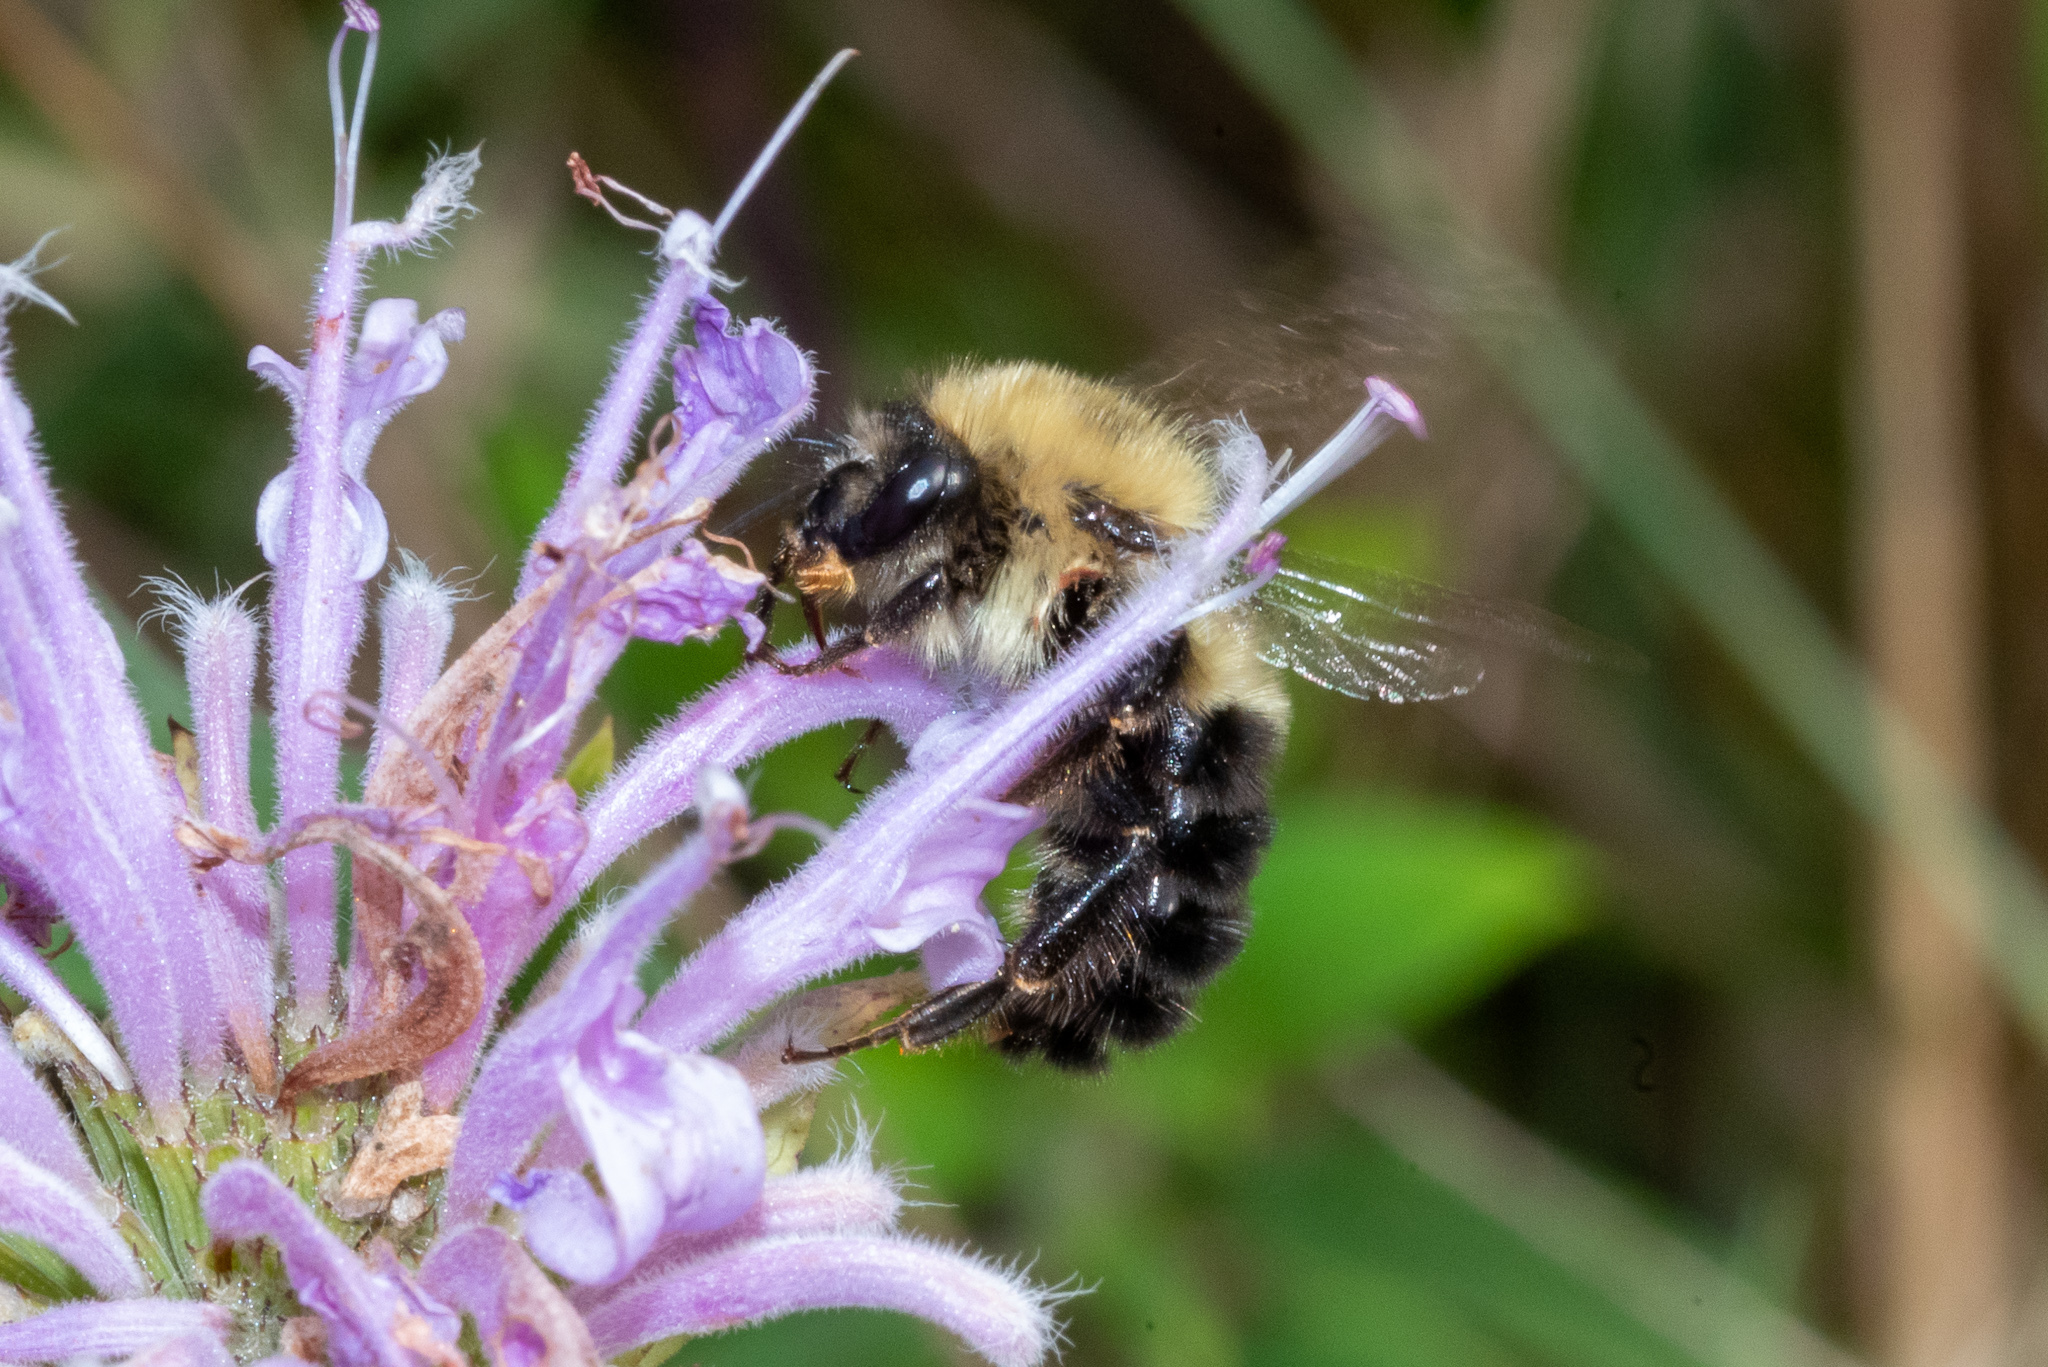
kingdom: Animalia
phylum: Arthropoda
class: Insecta
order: Hymenoptera
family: Apidae
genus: Bombus
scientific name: Bombus bimaculatus
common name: Two-spotted bumble bee
